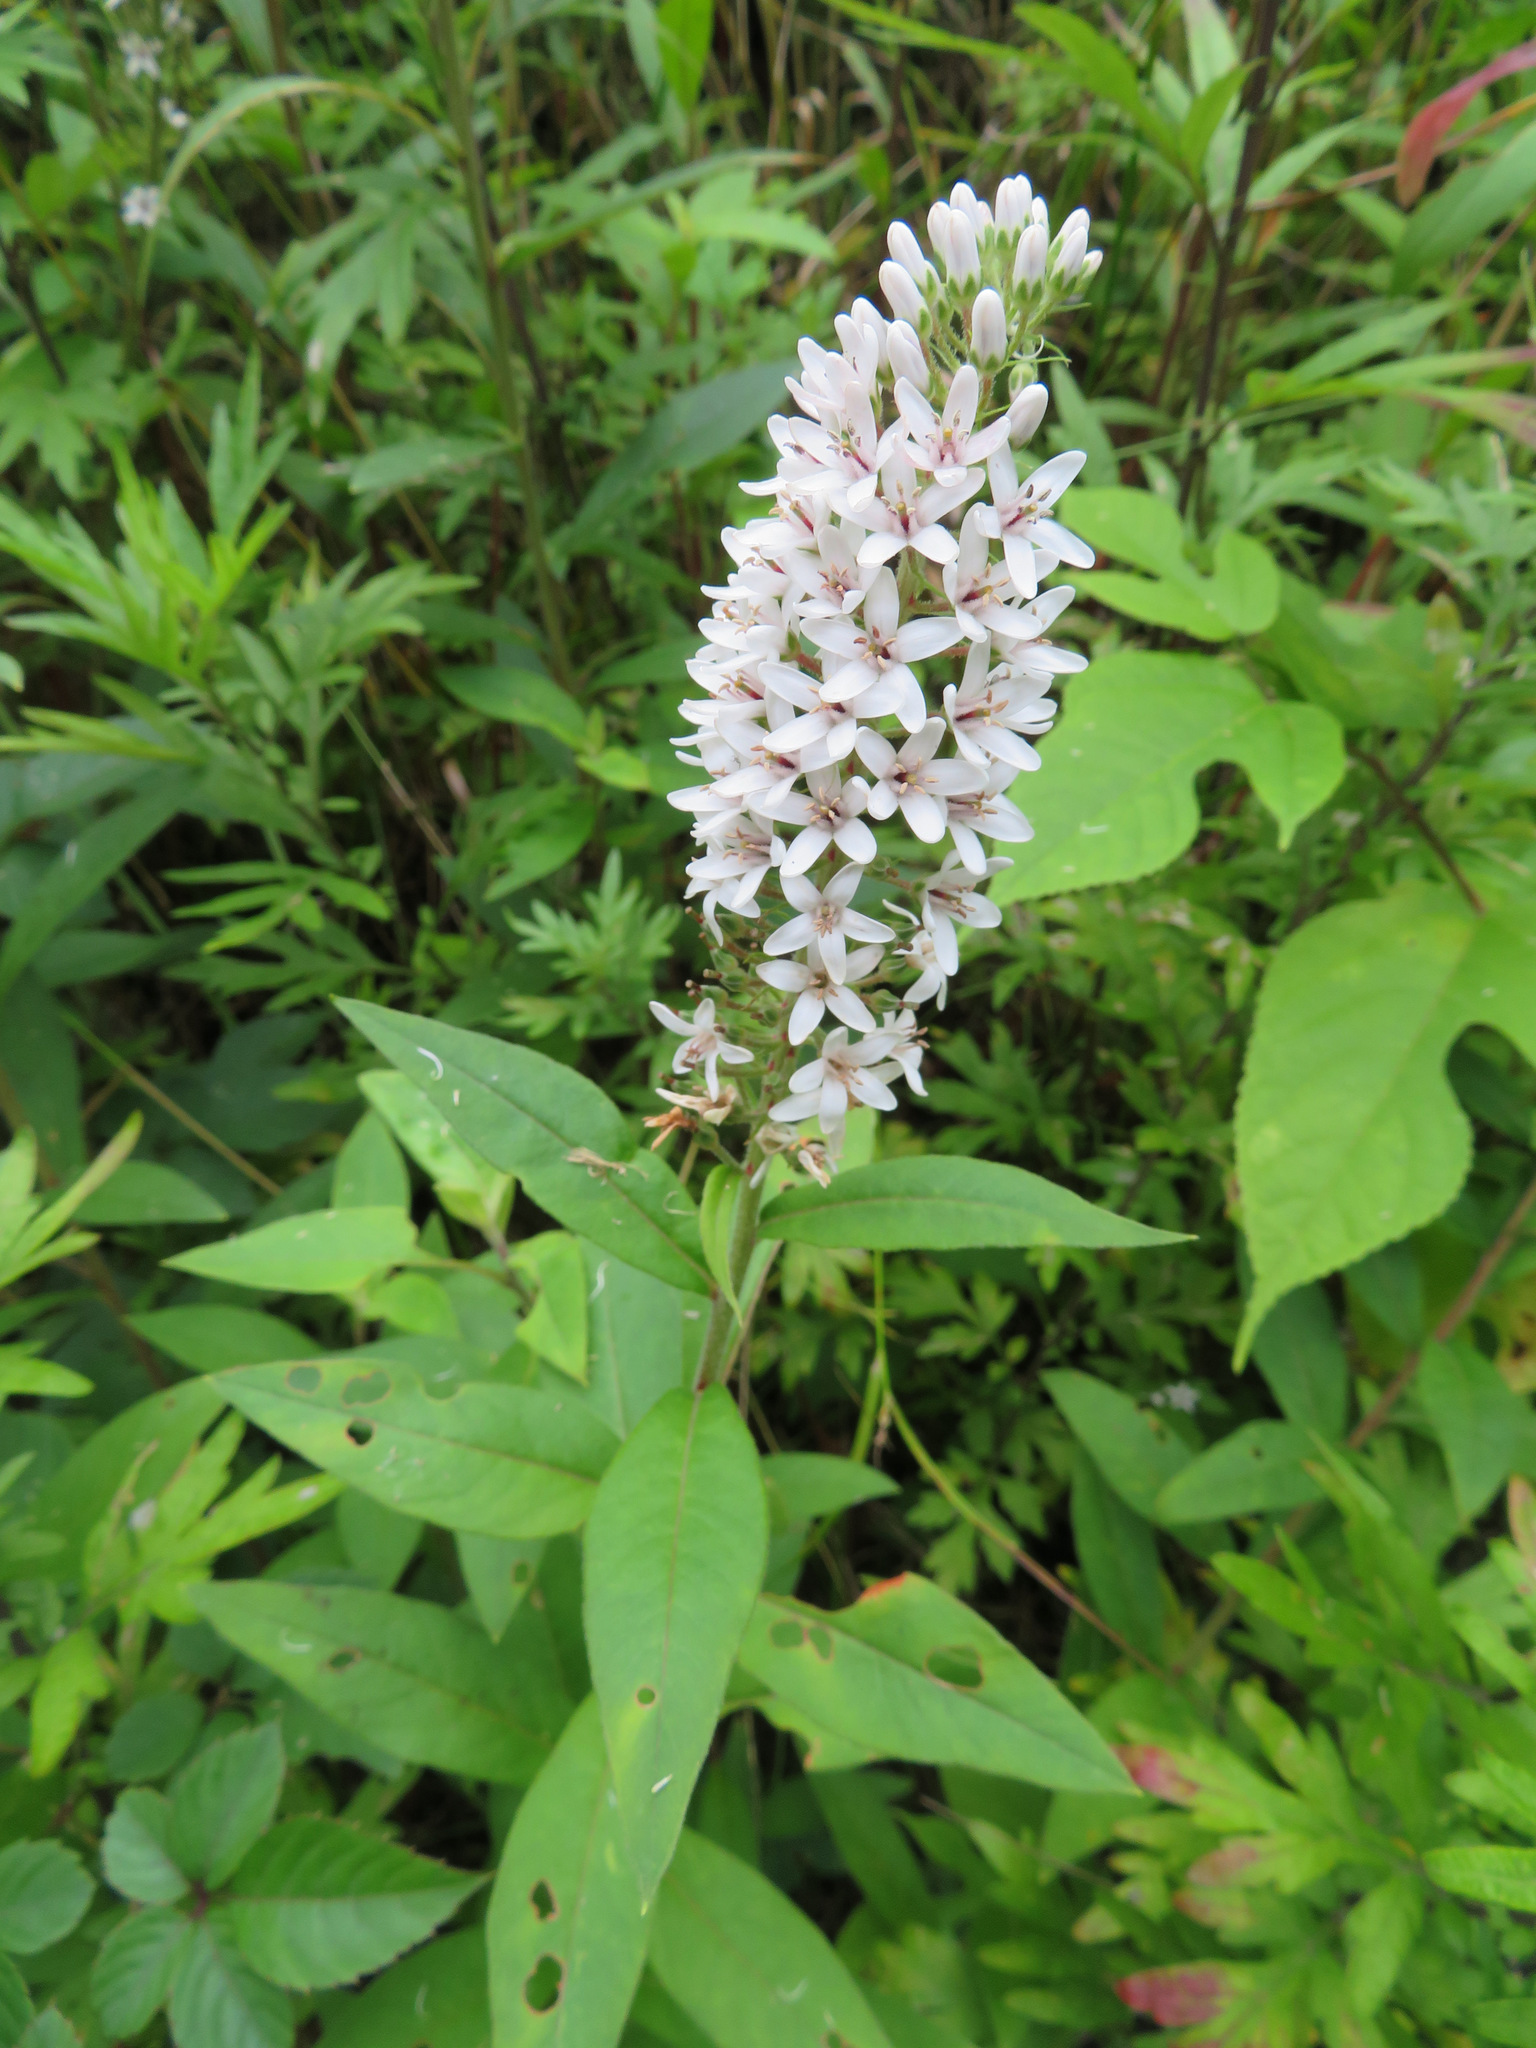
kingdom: Plantae
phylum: Tracheophyta
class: Magnoliopsida
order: Ericales
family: Primulaceae
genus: Lysimachia
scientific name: Lysimachia clethroides
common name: Gooseneck loosestrife
